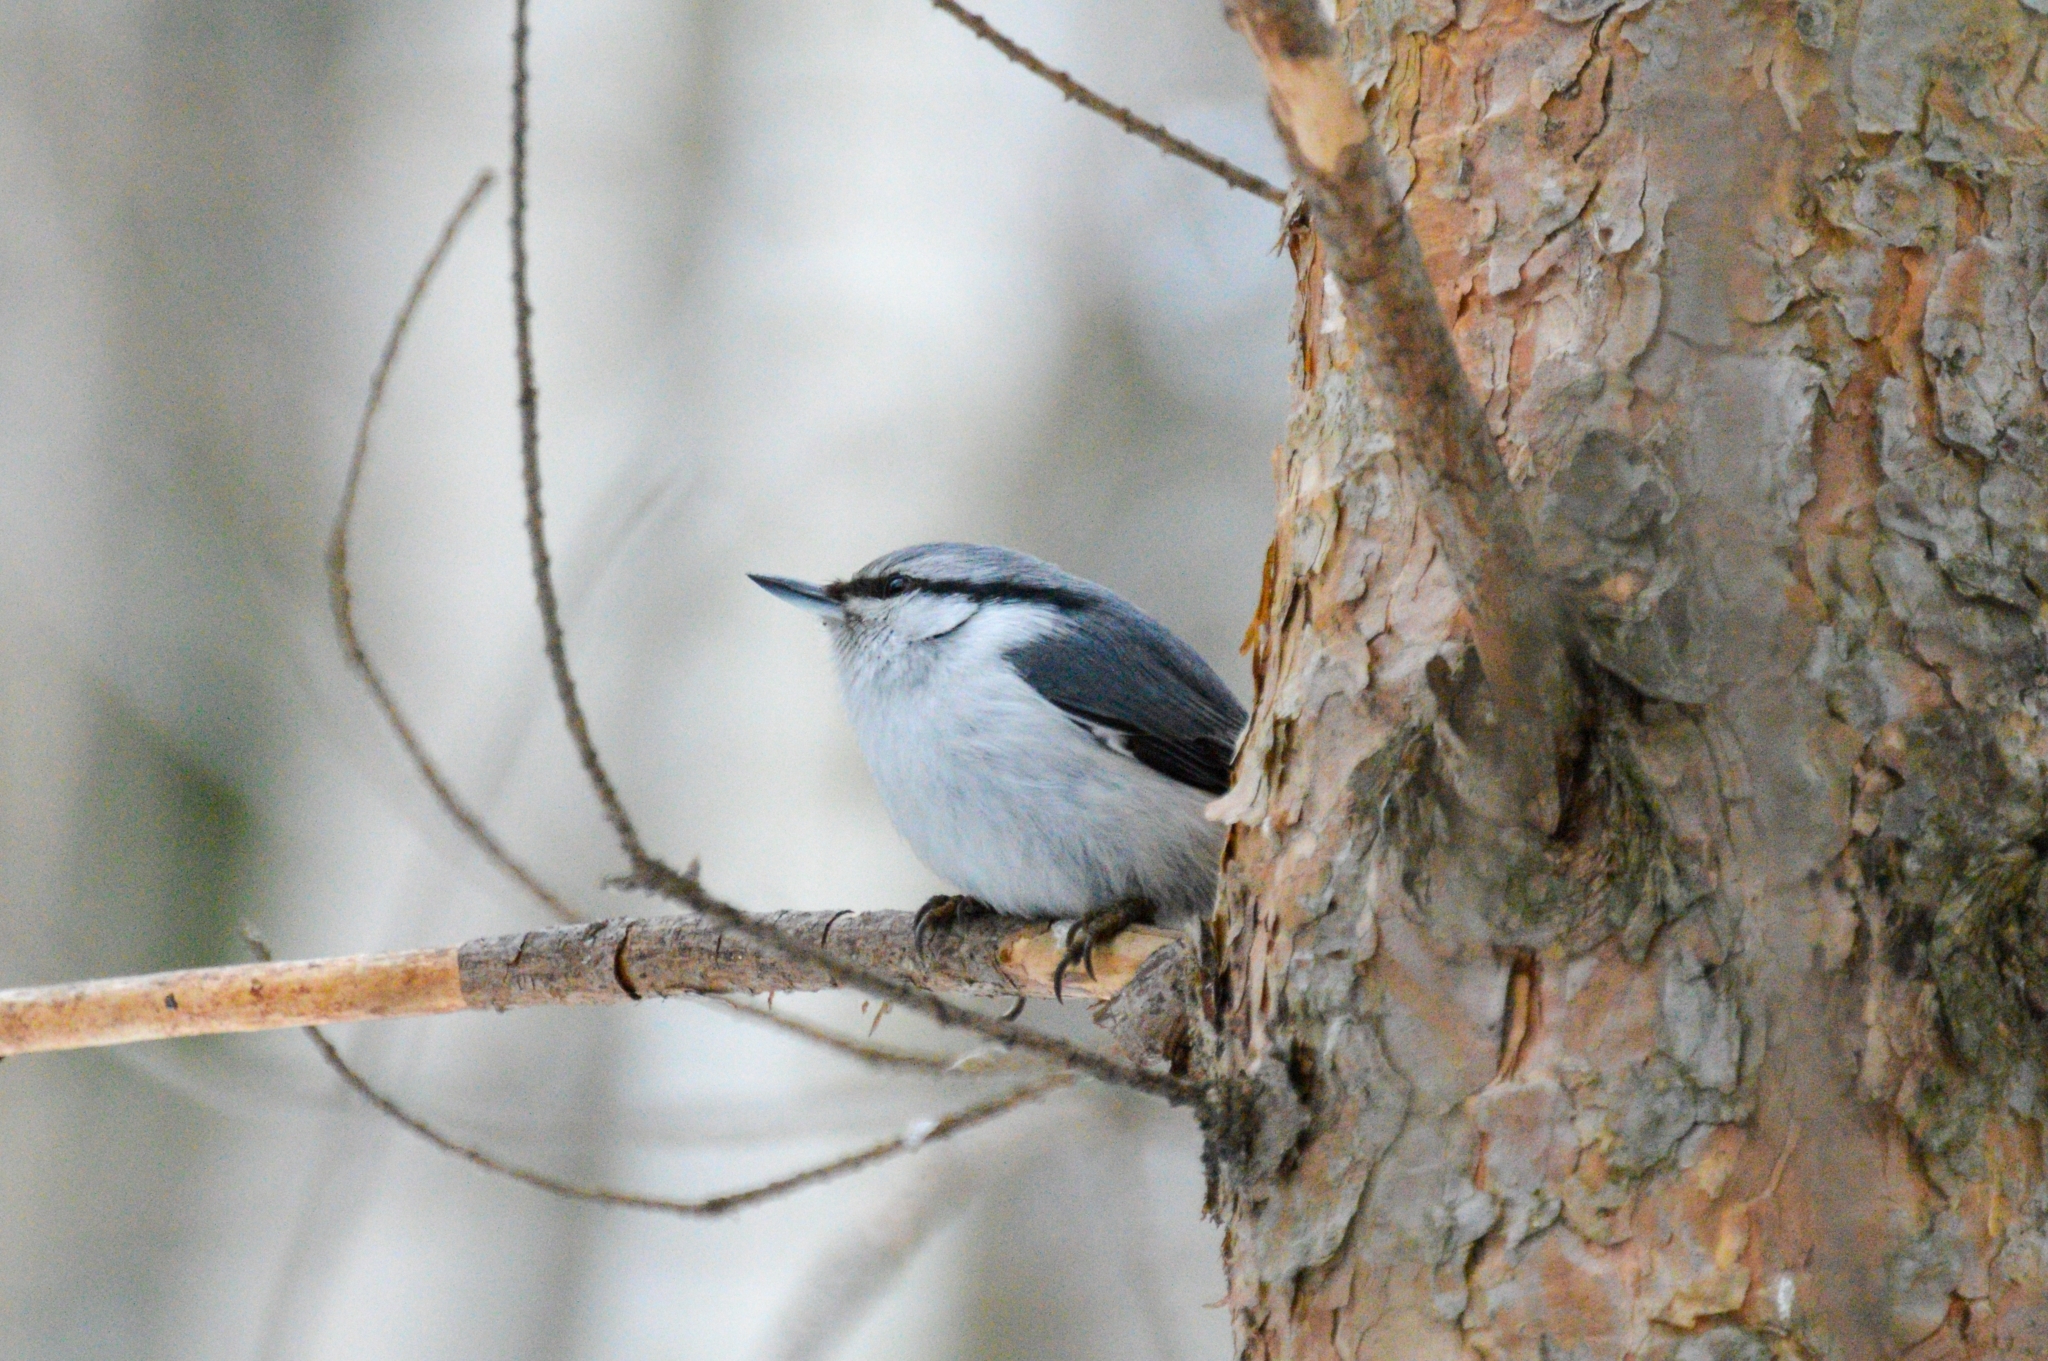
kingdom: Animalia
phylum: Chordata
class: Aves
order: Passeriformes
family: Sittidae
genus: Sitta
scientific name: Sitta europaea
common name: Eurasian nuthatch
